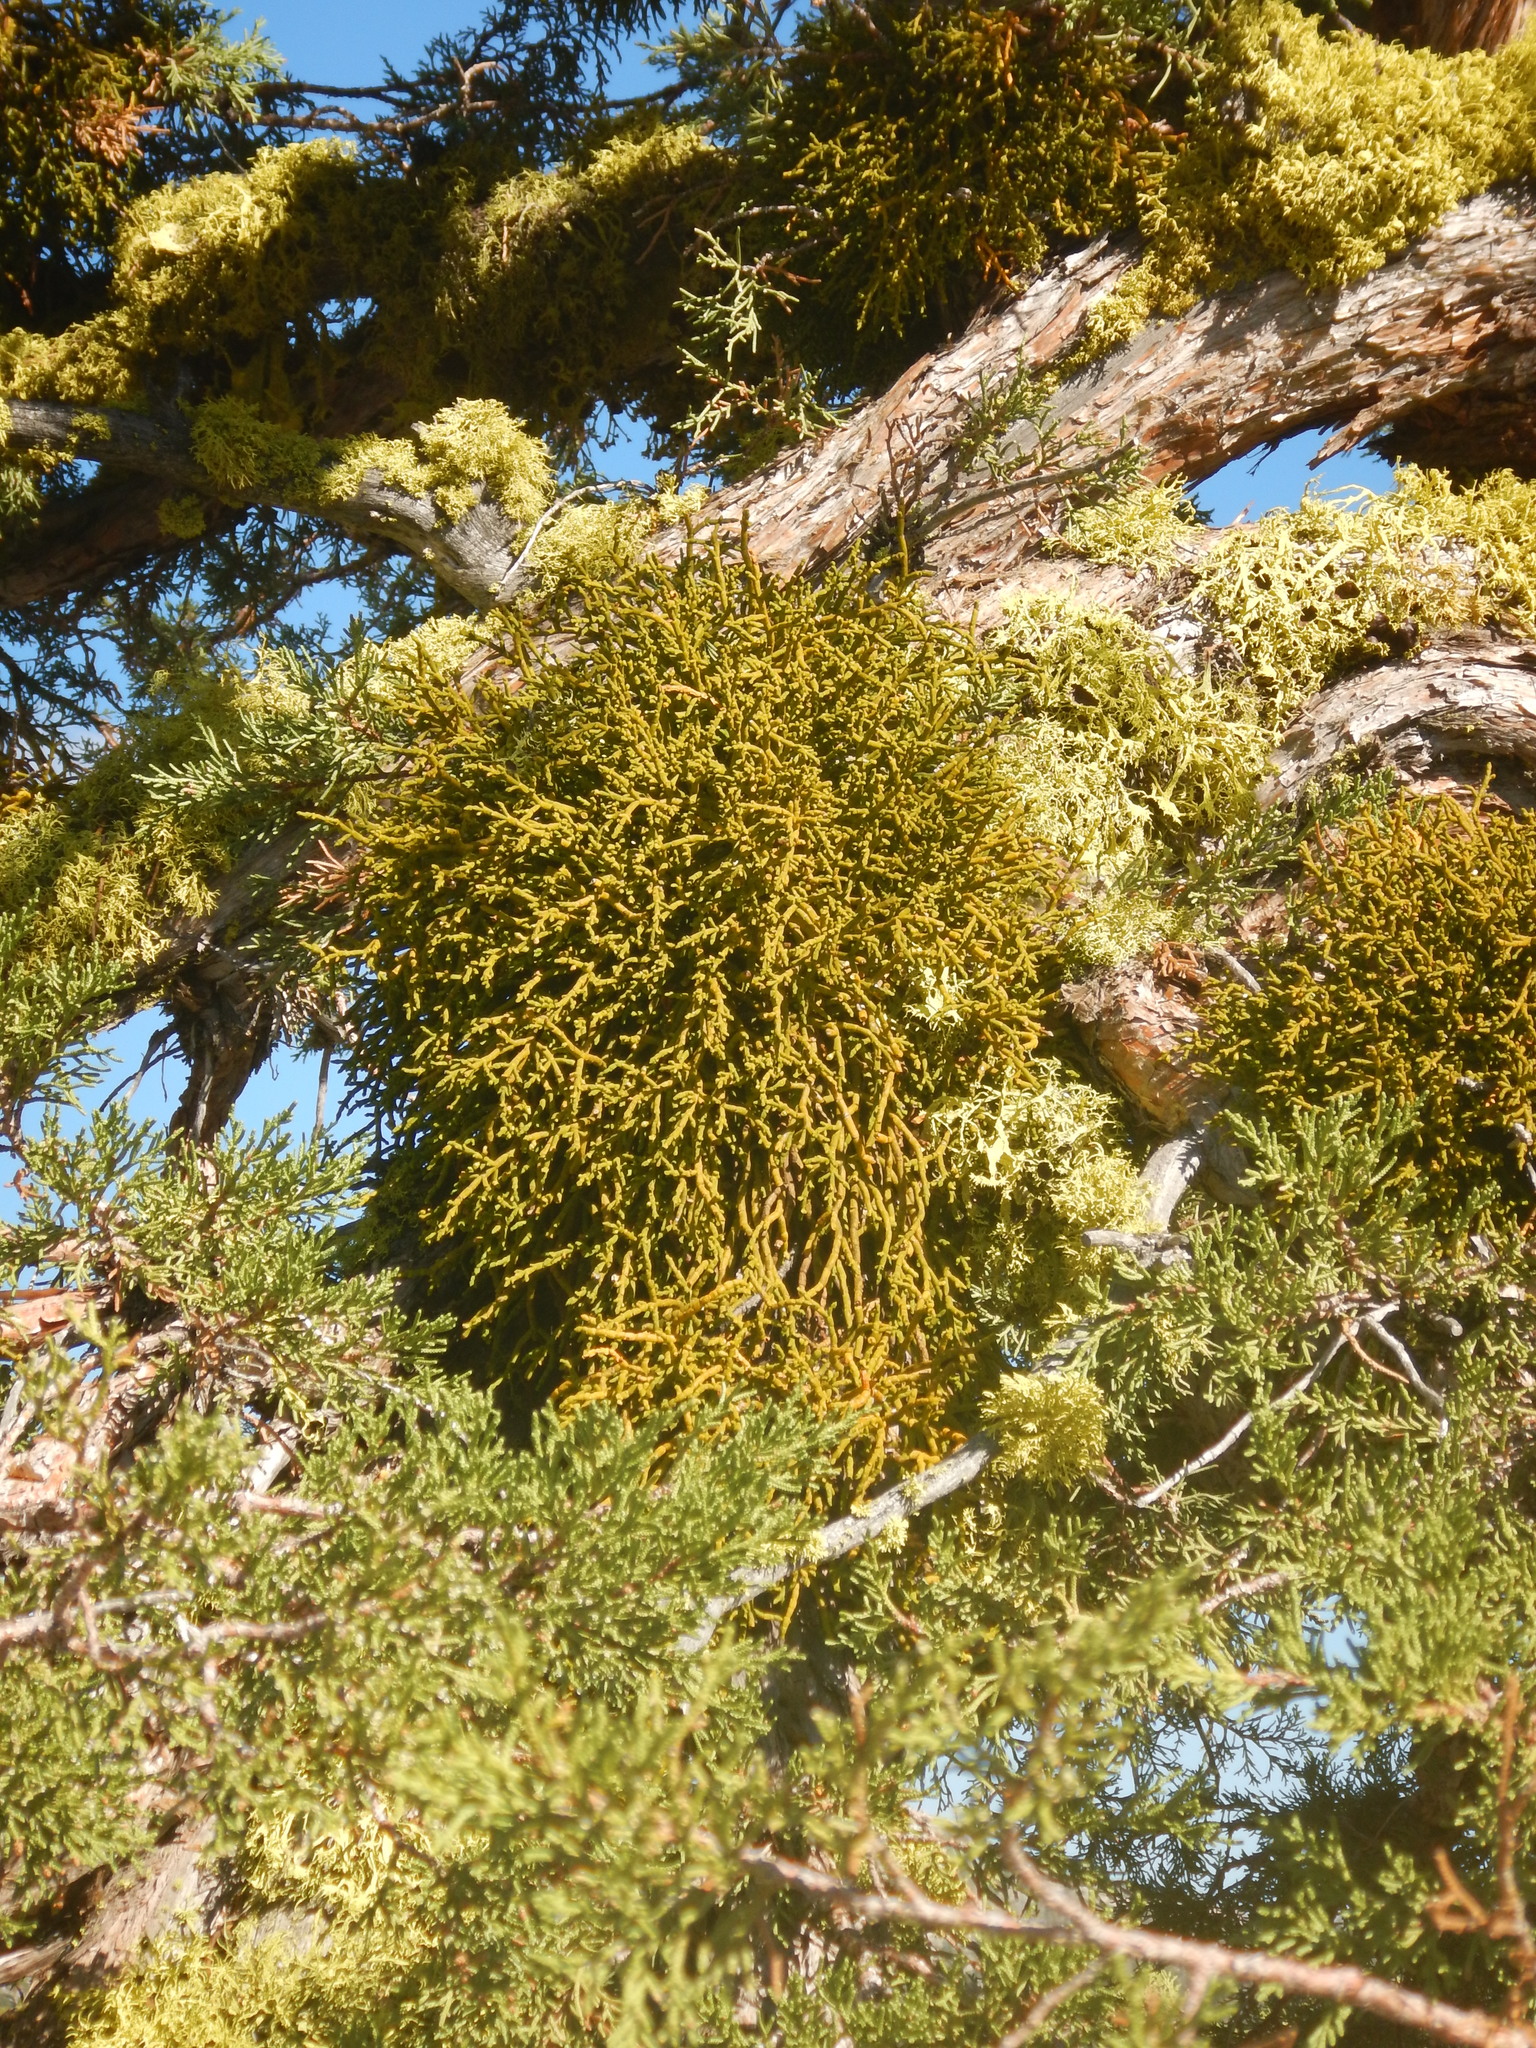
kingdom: Plantae
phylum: Tracheophyta
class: Magnoliopsida
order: Santalales
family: Viscaceae
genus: Phoradendron
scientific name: Phoradendron juniperinum
